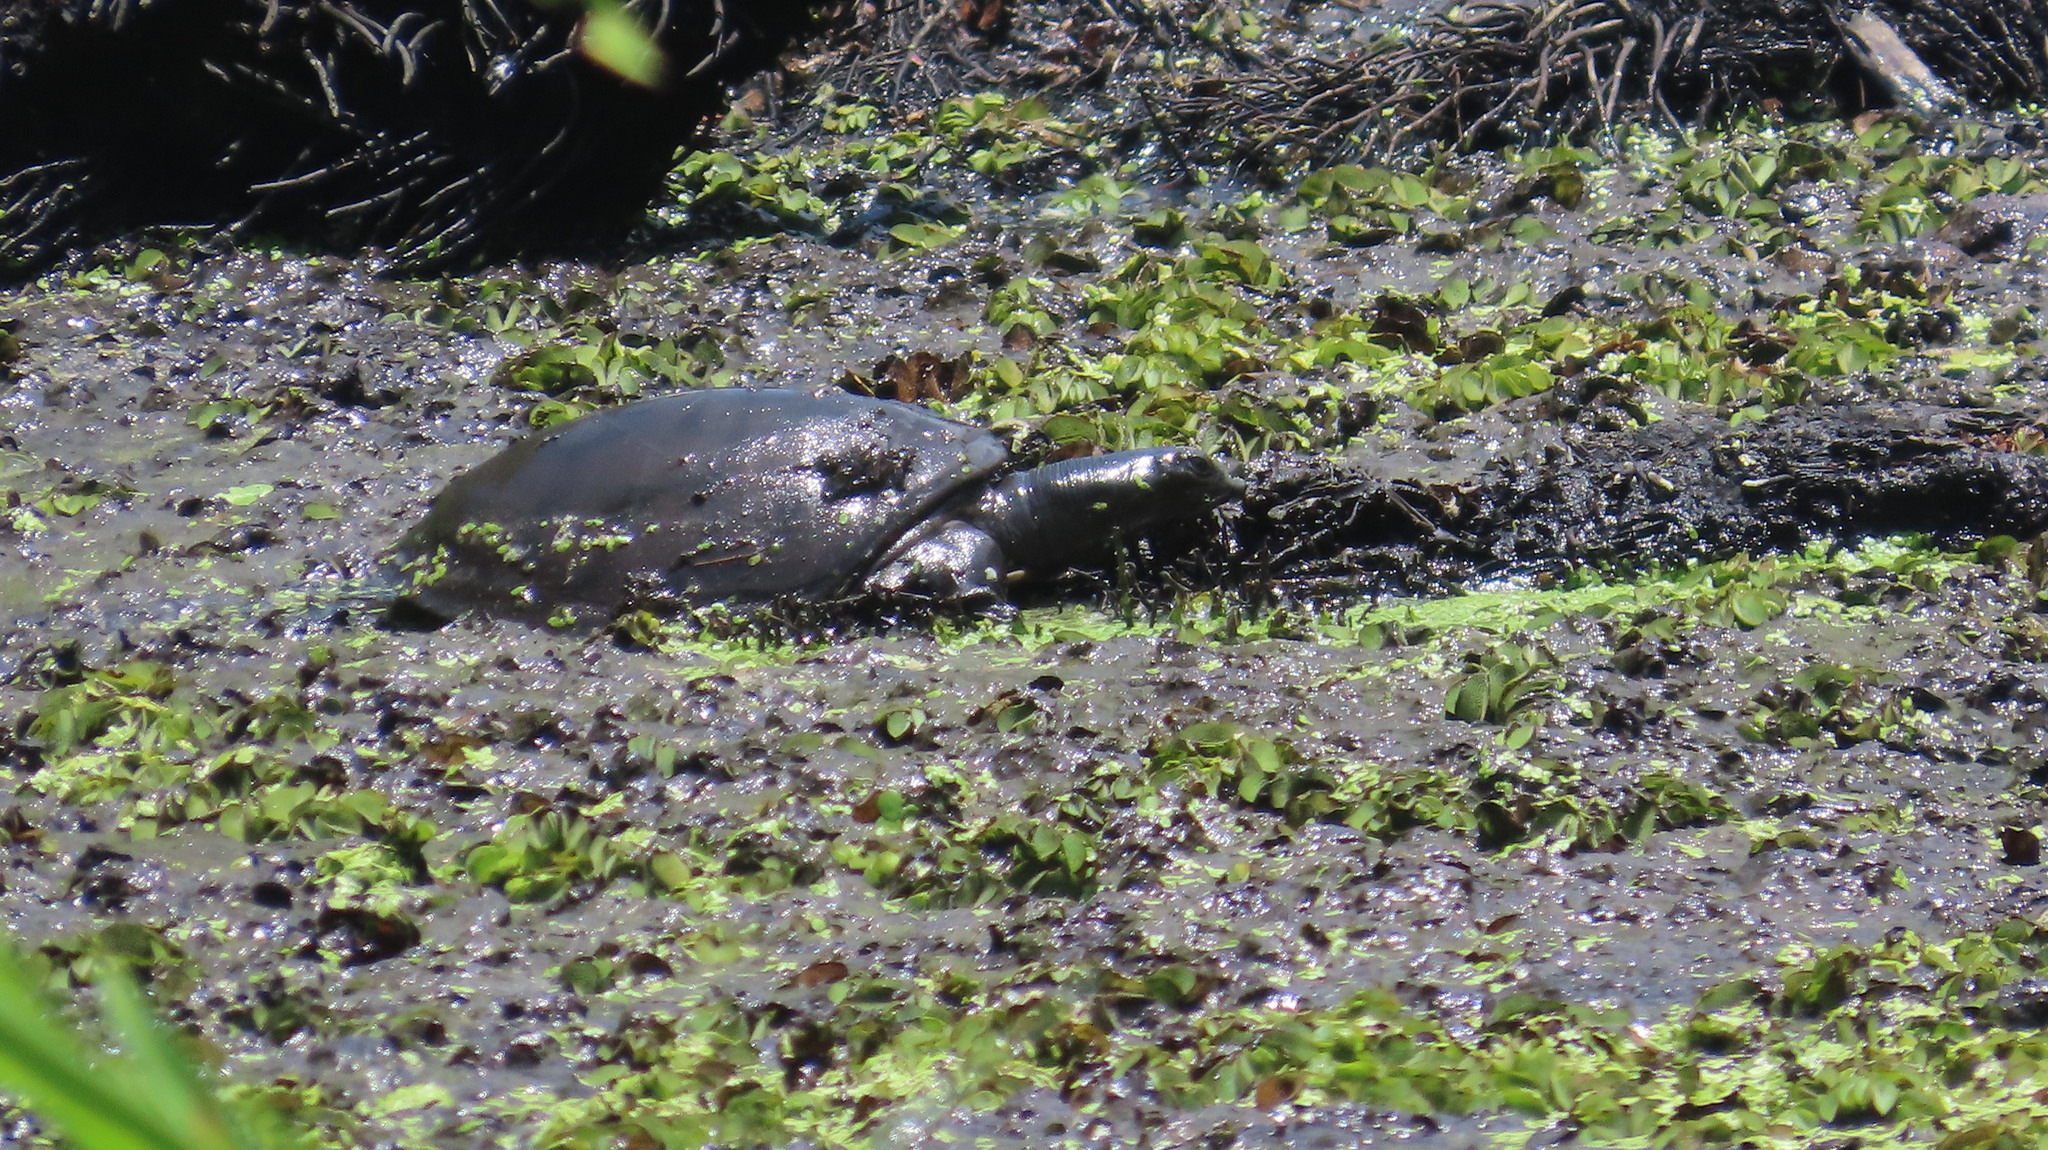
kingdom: Animalia
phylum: Chordata
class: Testudines
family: Trionychidae
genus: Lissemys
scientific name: Lissemys punctata
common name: Indian flap-shelled turtle
